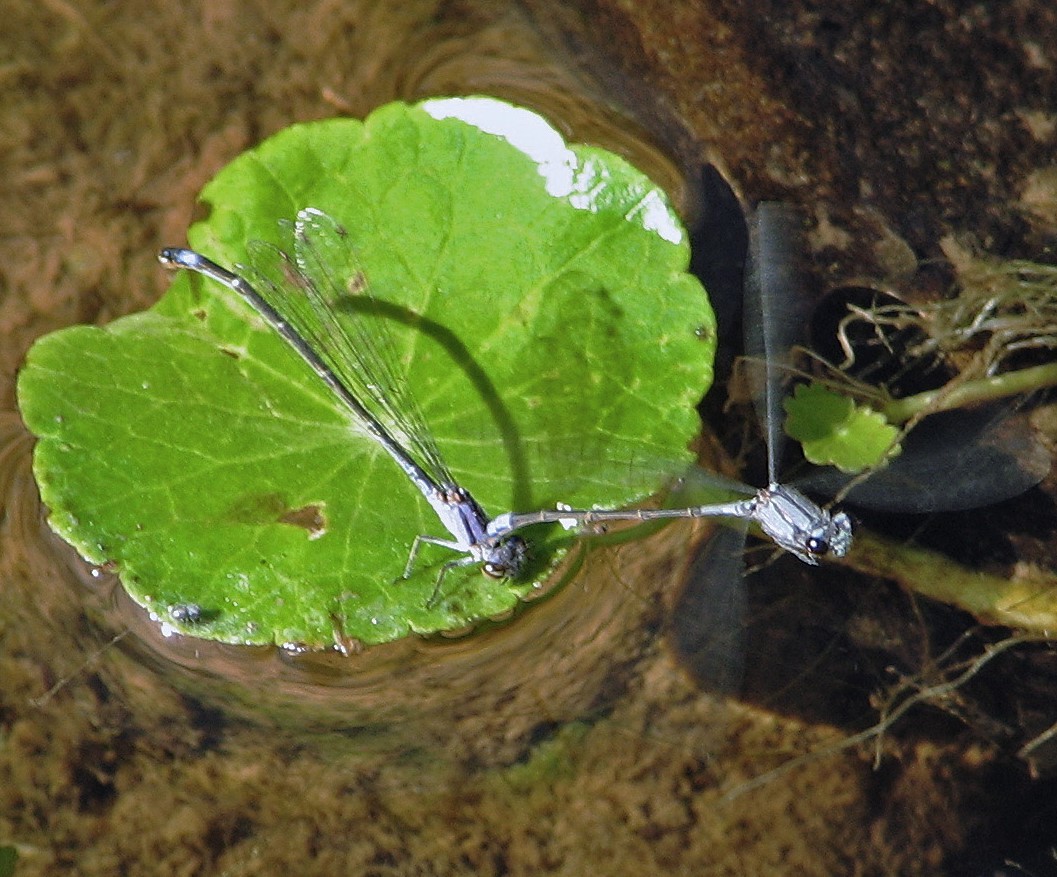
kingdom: Animalia
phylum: Arthropoda
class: Insecta
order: Odonata
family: Coenagrionidae
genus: Enallagma
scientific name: Enallagma novaehispaniae
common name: Neotropical bluet
